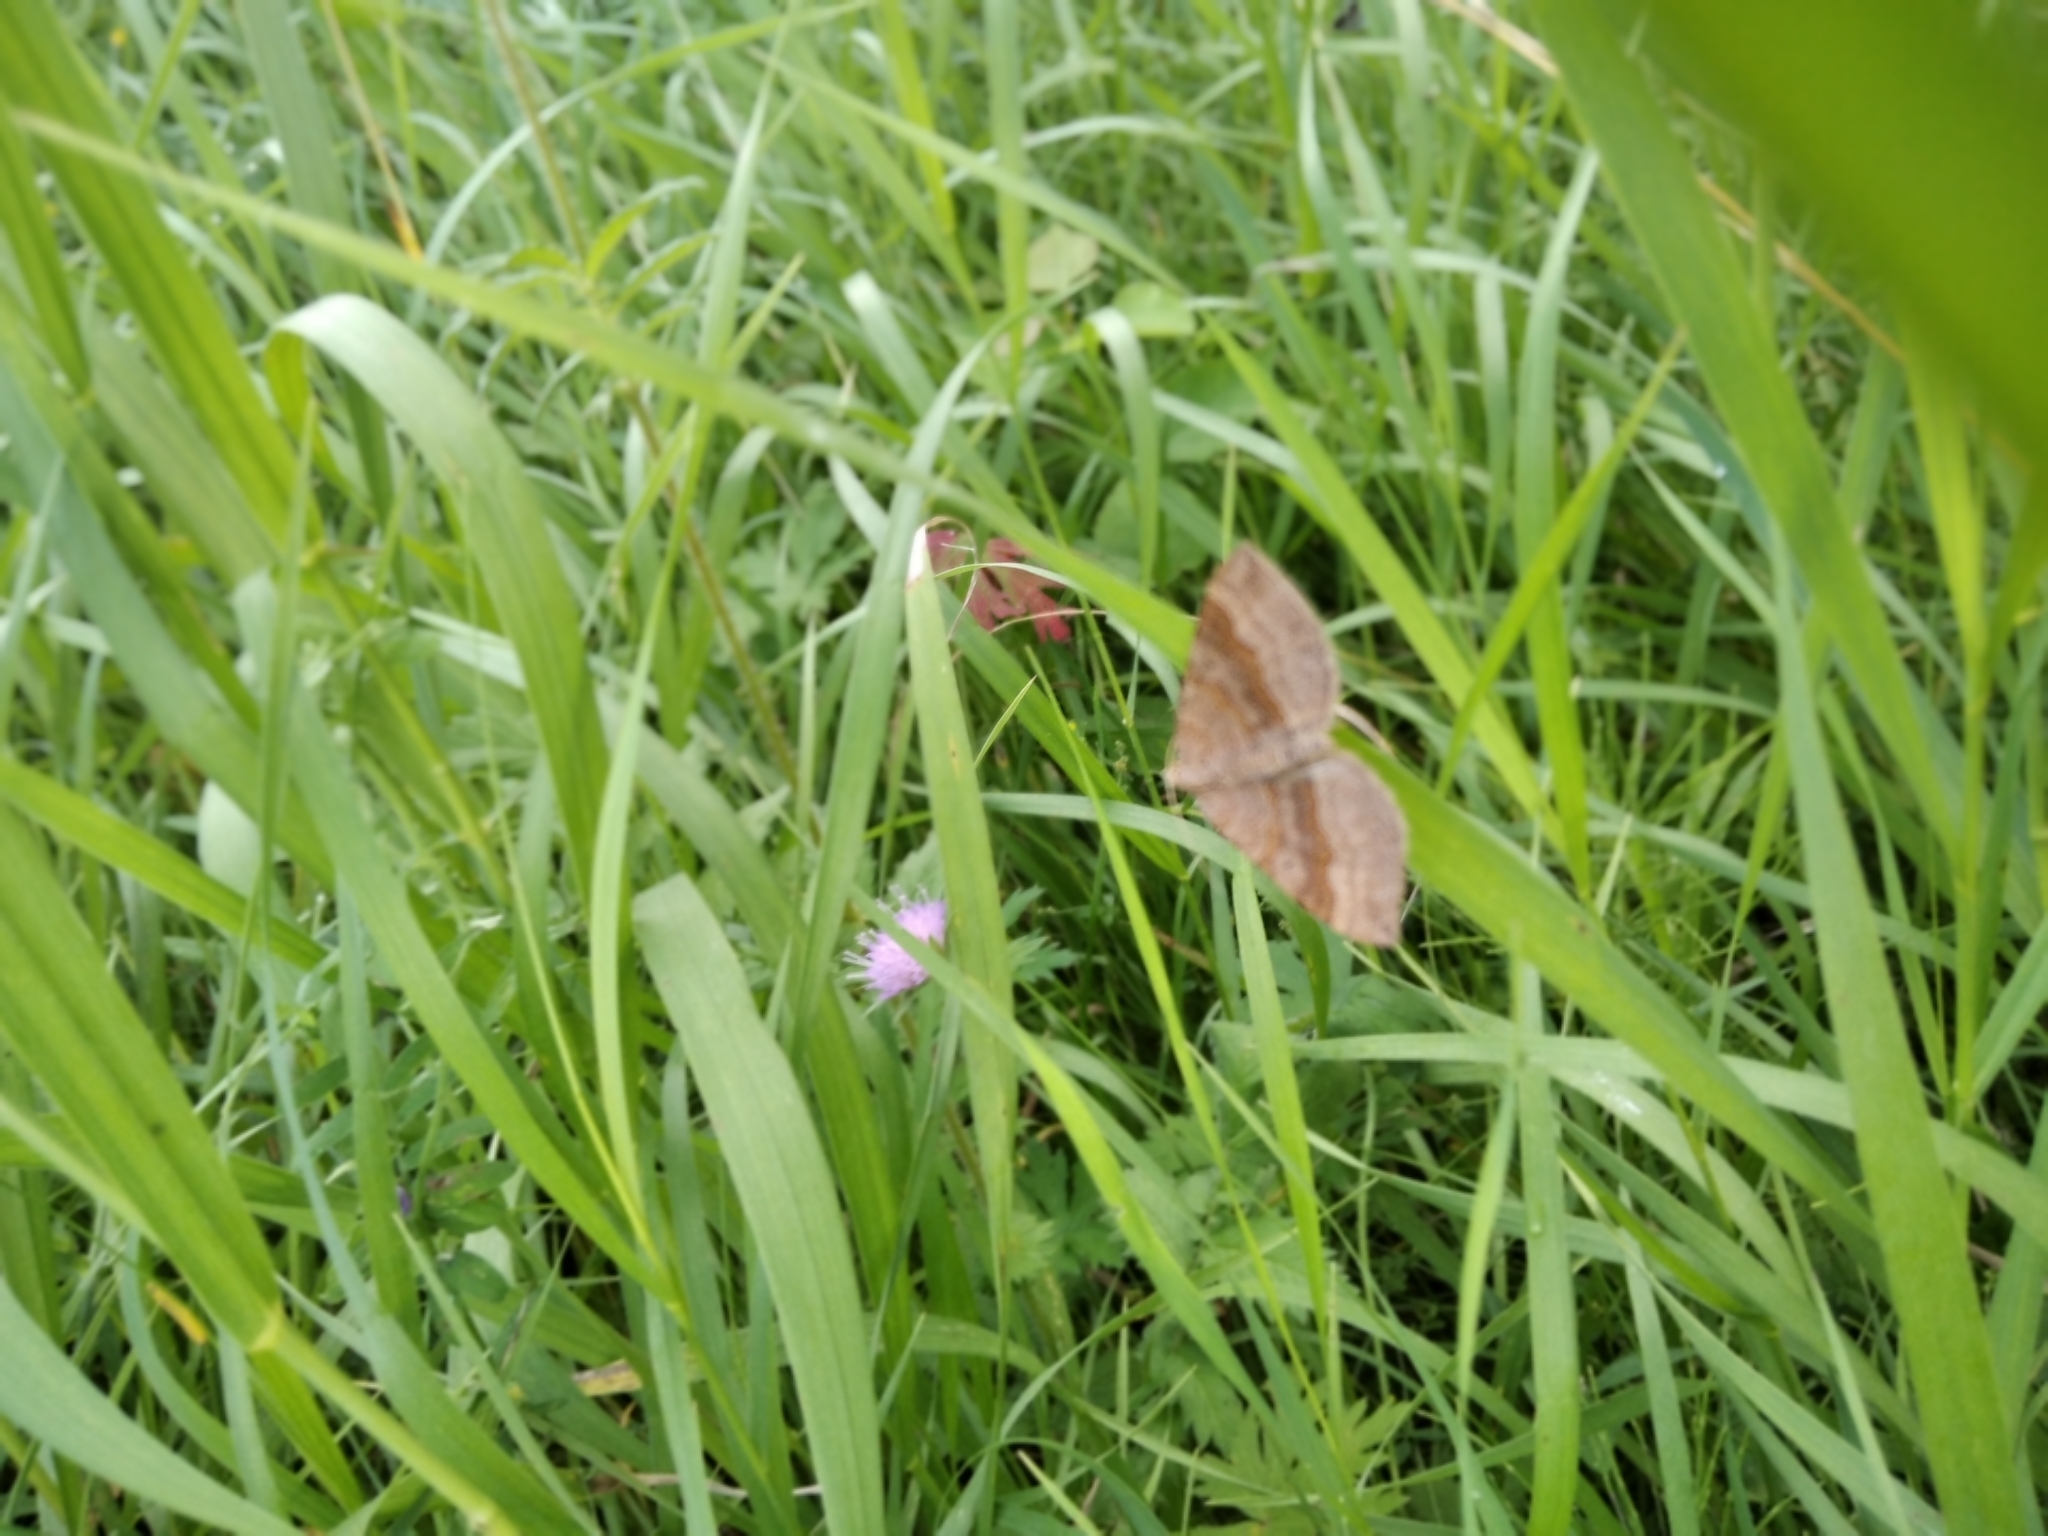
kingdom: Animalia
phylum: Arthropoda
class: Insecta
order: Lepidoptera
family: Geometridae
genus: Scotopteryx
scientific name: Scotopteryx chenopodiata
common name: Shaded broad-bar
